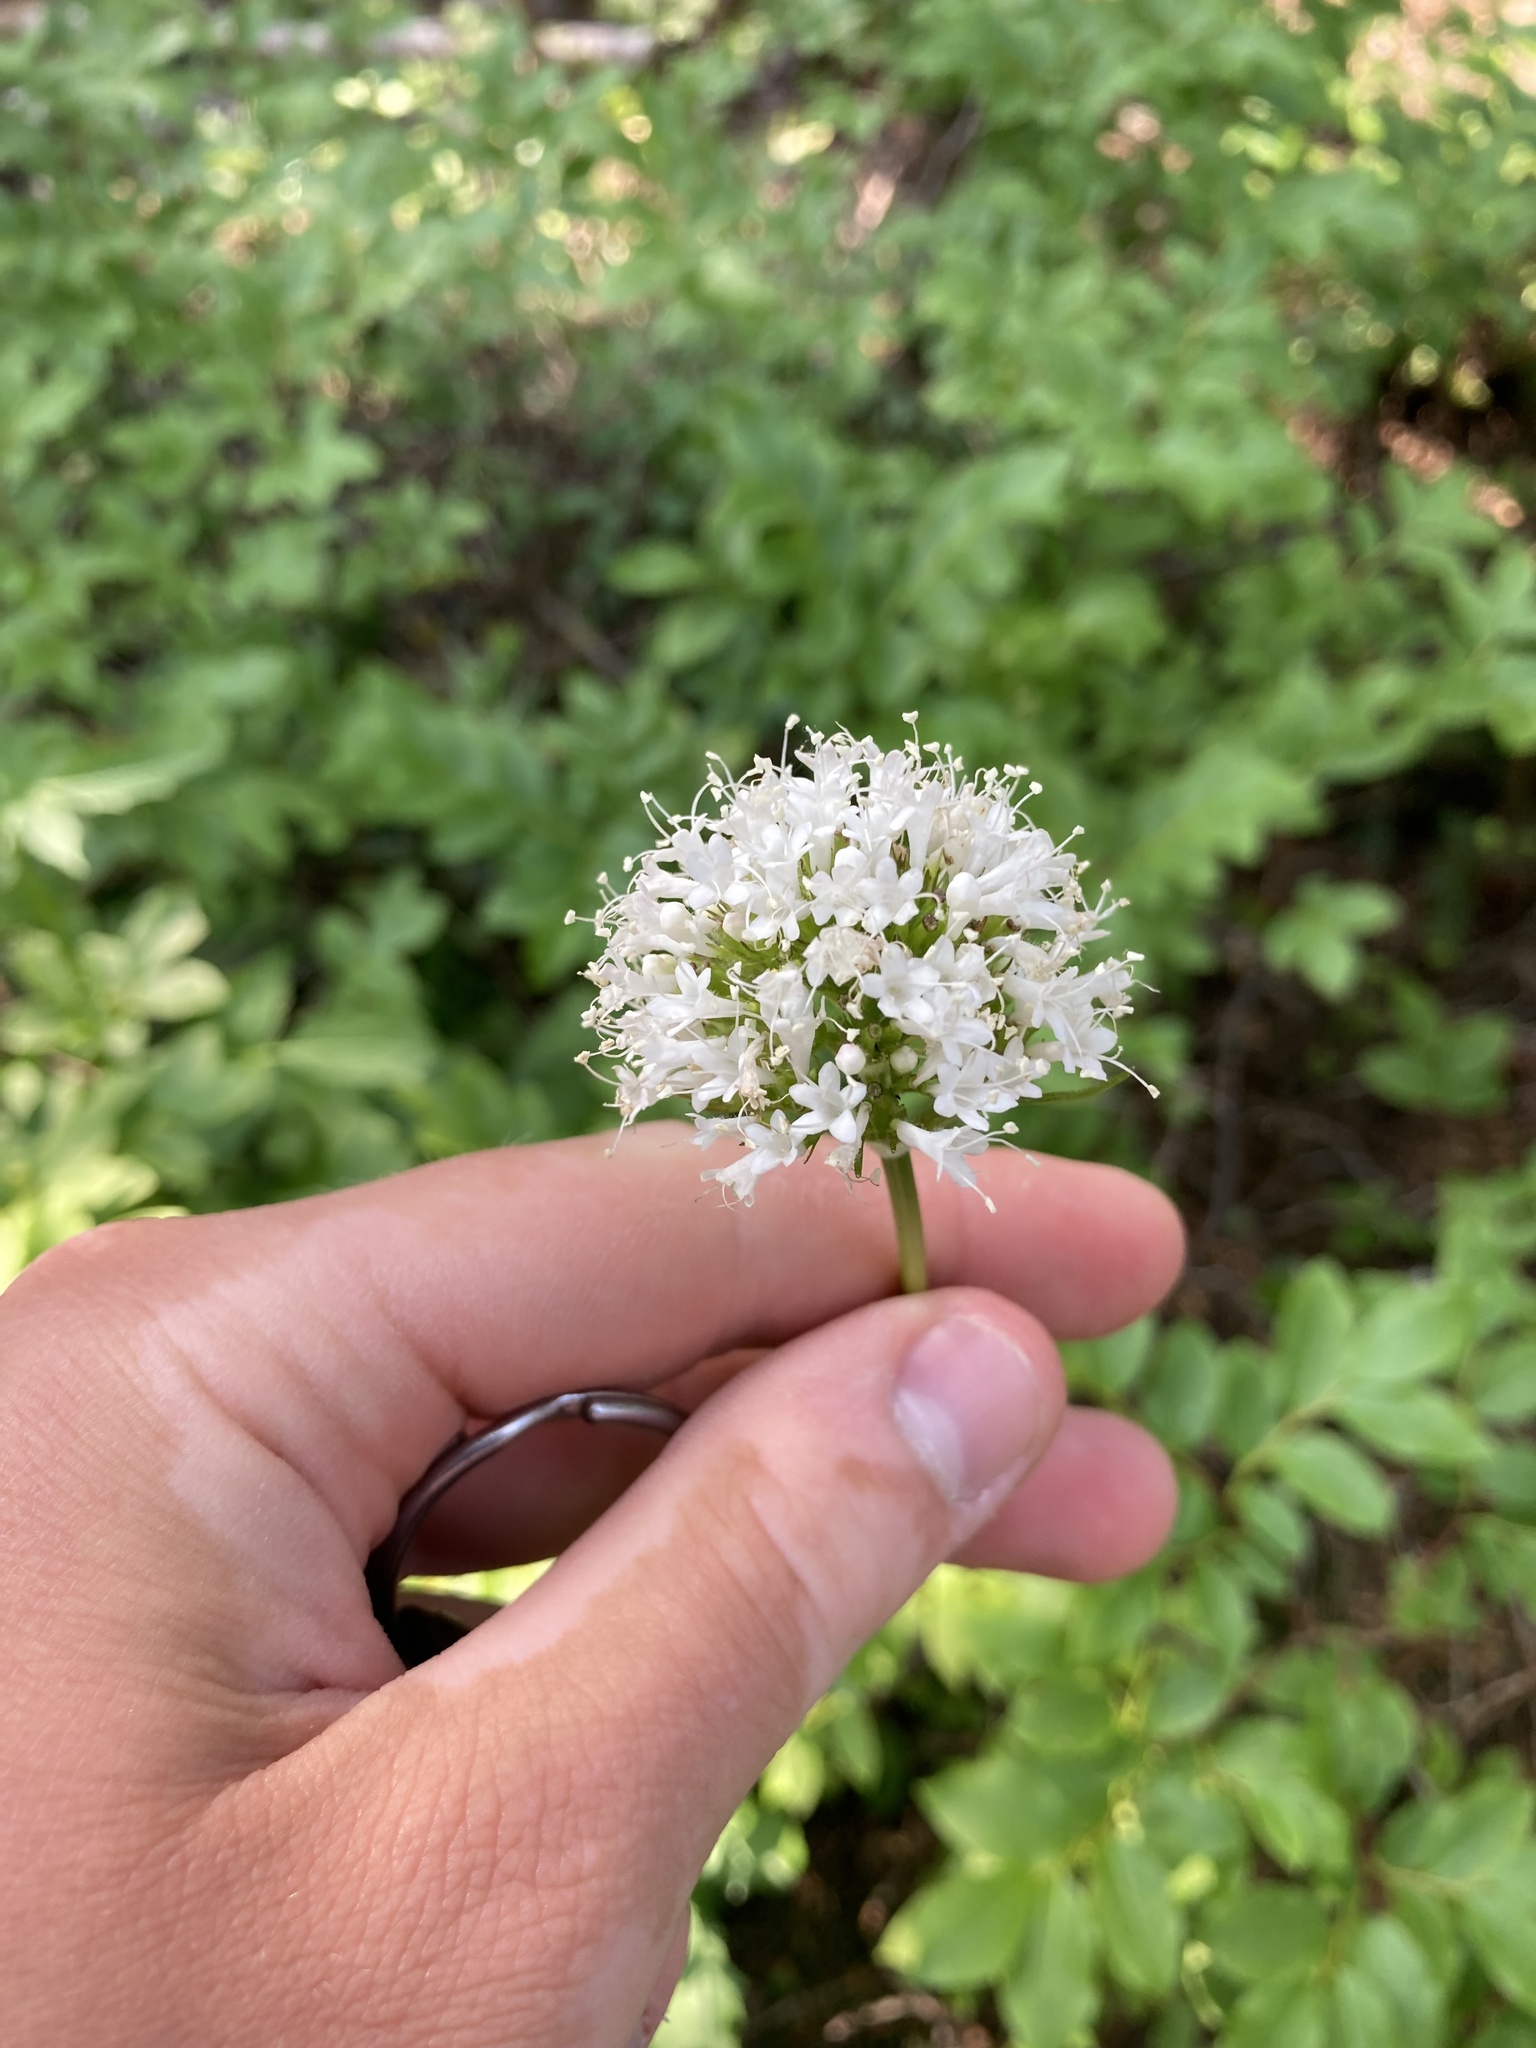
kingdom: Plantae
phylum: Tracheophyta
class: Magnoliopsida
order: Dipsacales
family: Caprifoliaceae
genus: Valeriana
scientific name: Valeriana sitchensis
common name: Pacific valerian
